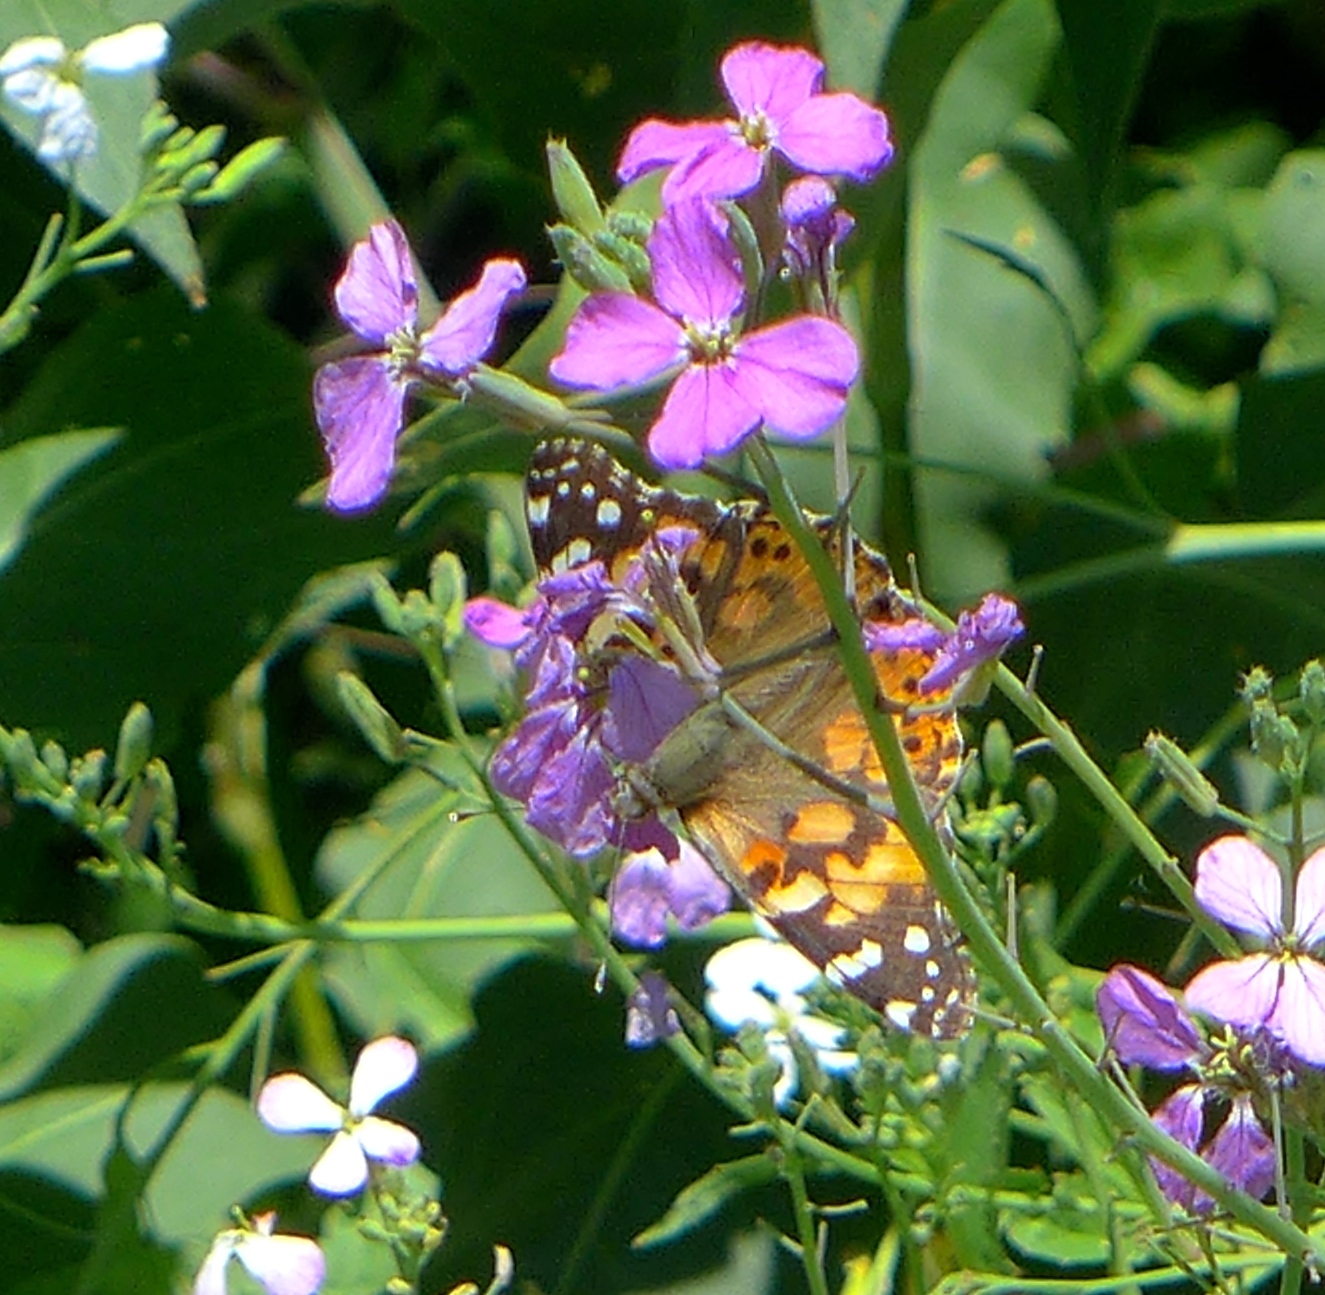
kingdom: Animalia
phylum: Arthropoda
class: Insecta
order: Lepidoptera
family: Nymphalidae
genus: Vanessa
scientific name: Vanessa cardui
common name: Painted lady
